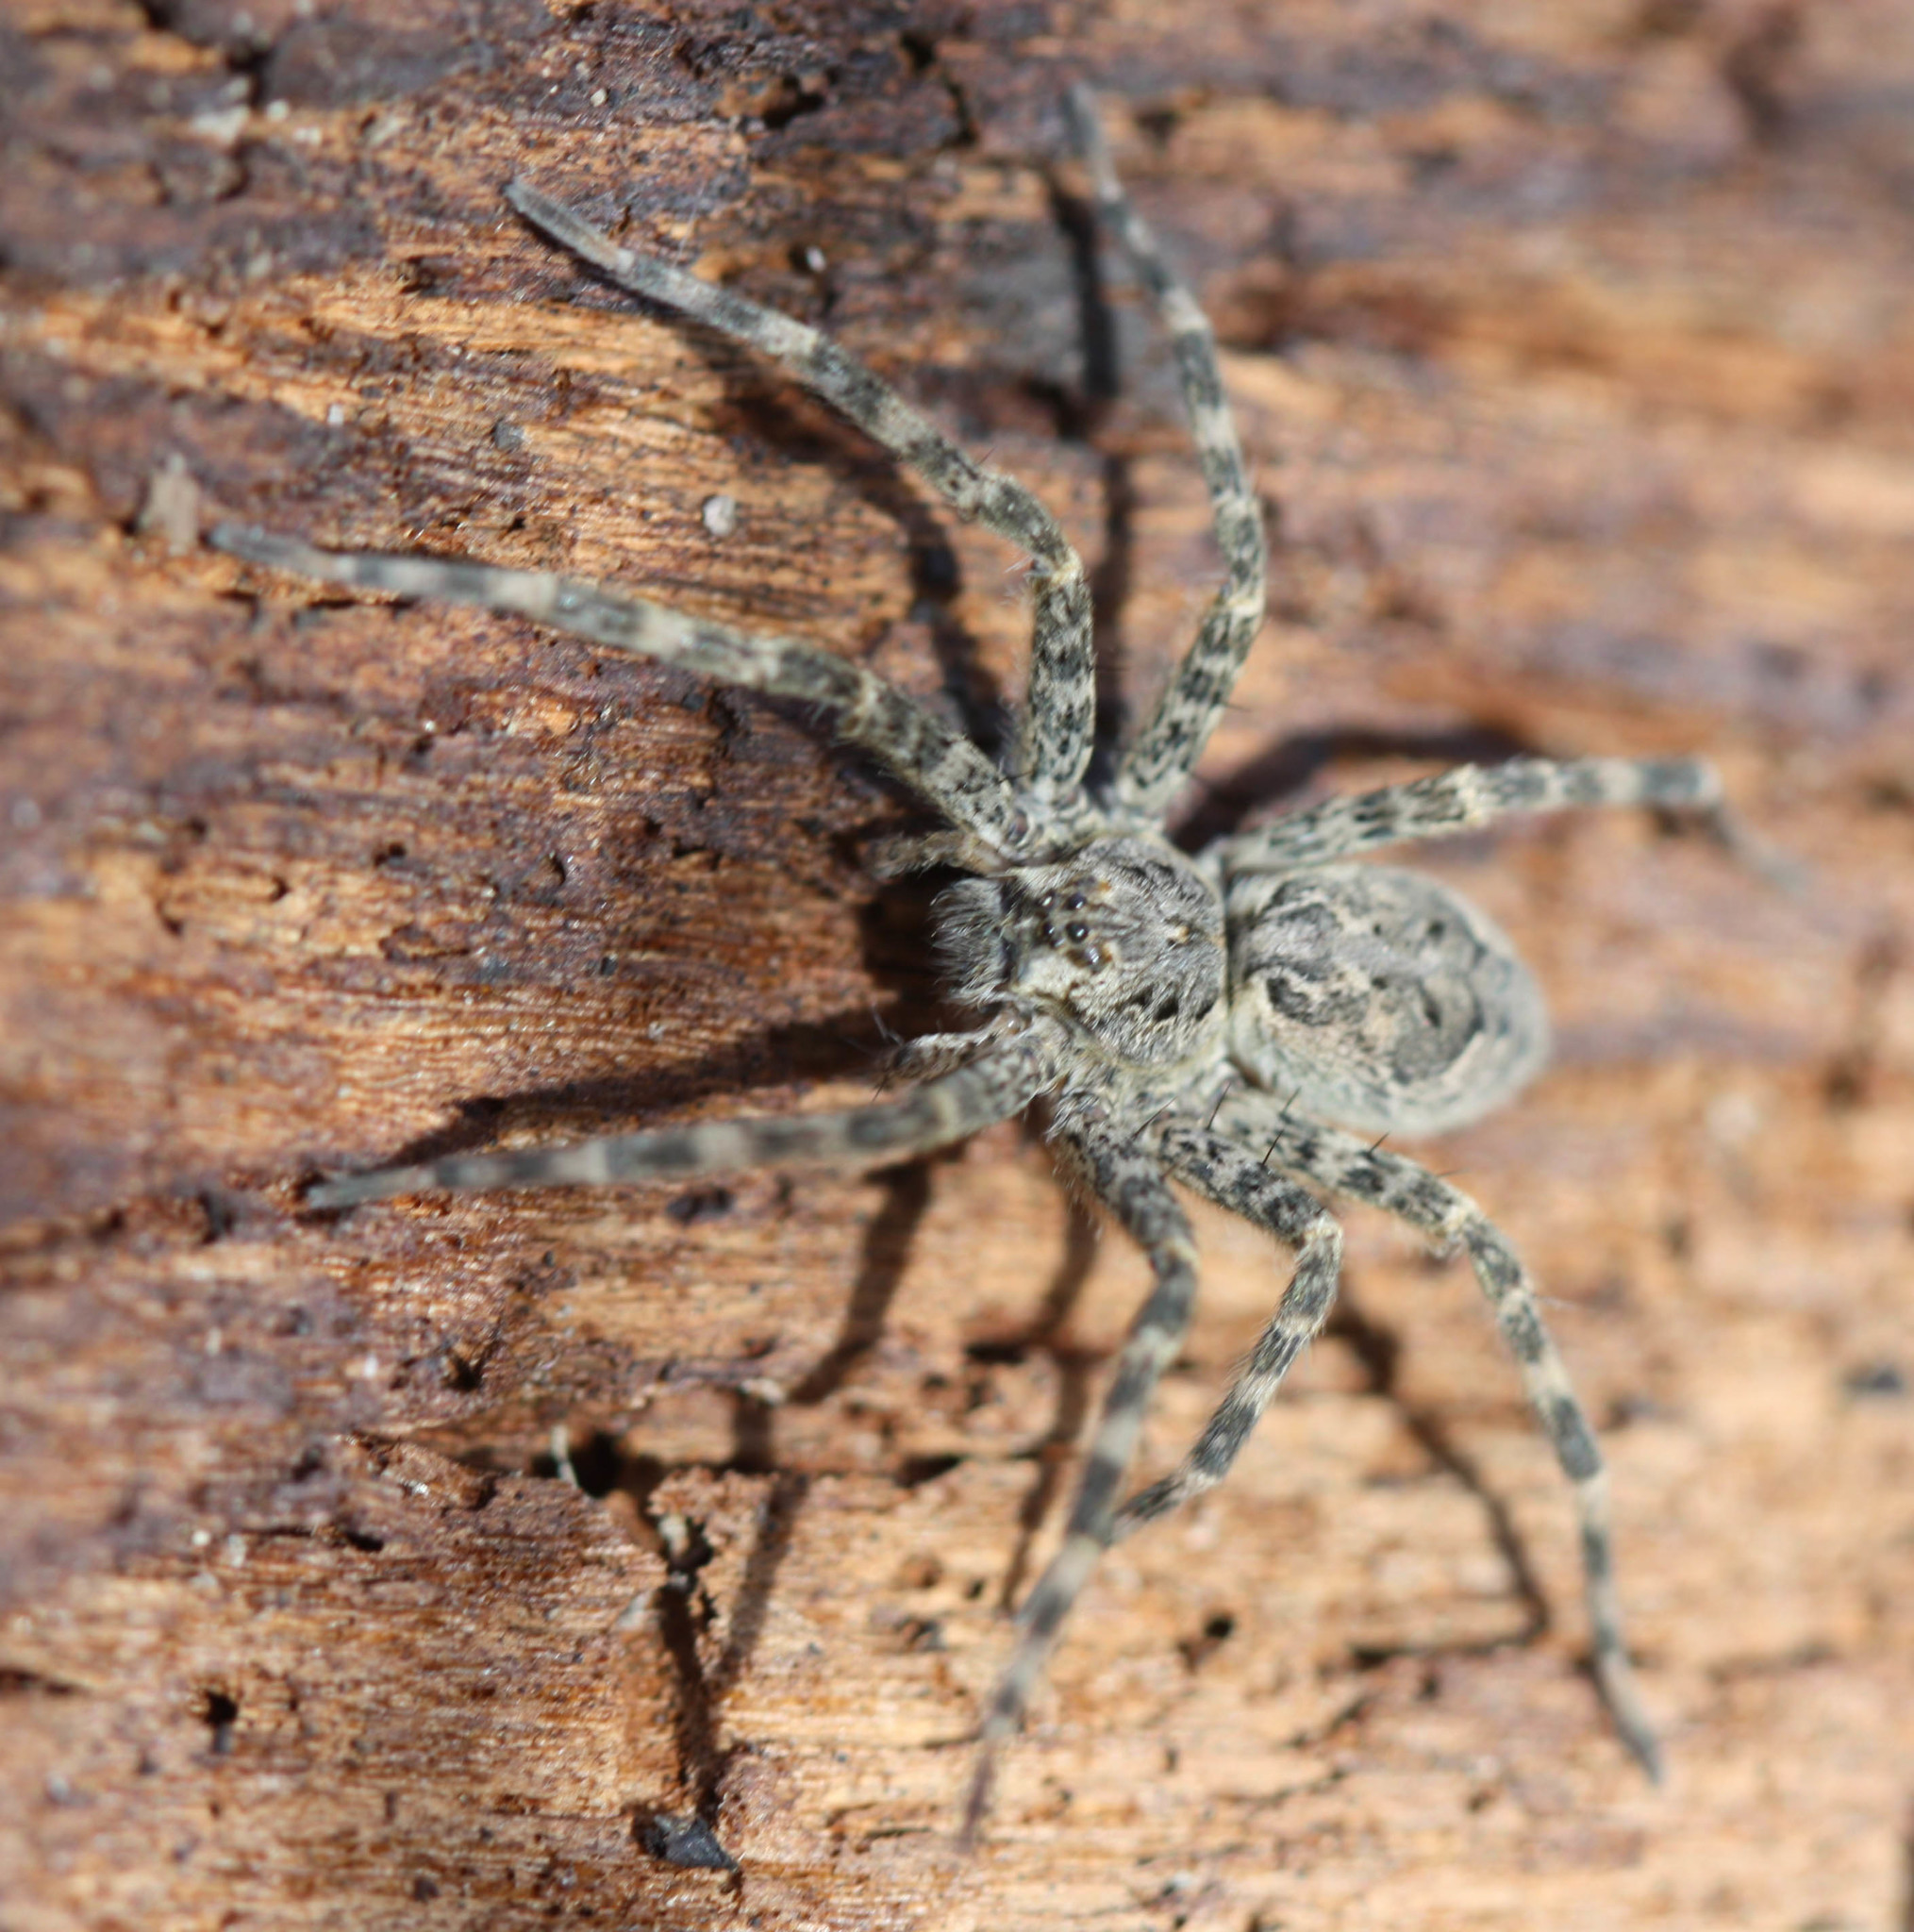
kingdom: Animalia
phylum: Arthropoda
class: Arachnida
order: Araneae
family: Pisauridae
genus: Dolomedes
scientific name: Dolomedes tenebrosus
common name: Dark fishing spider
